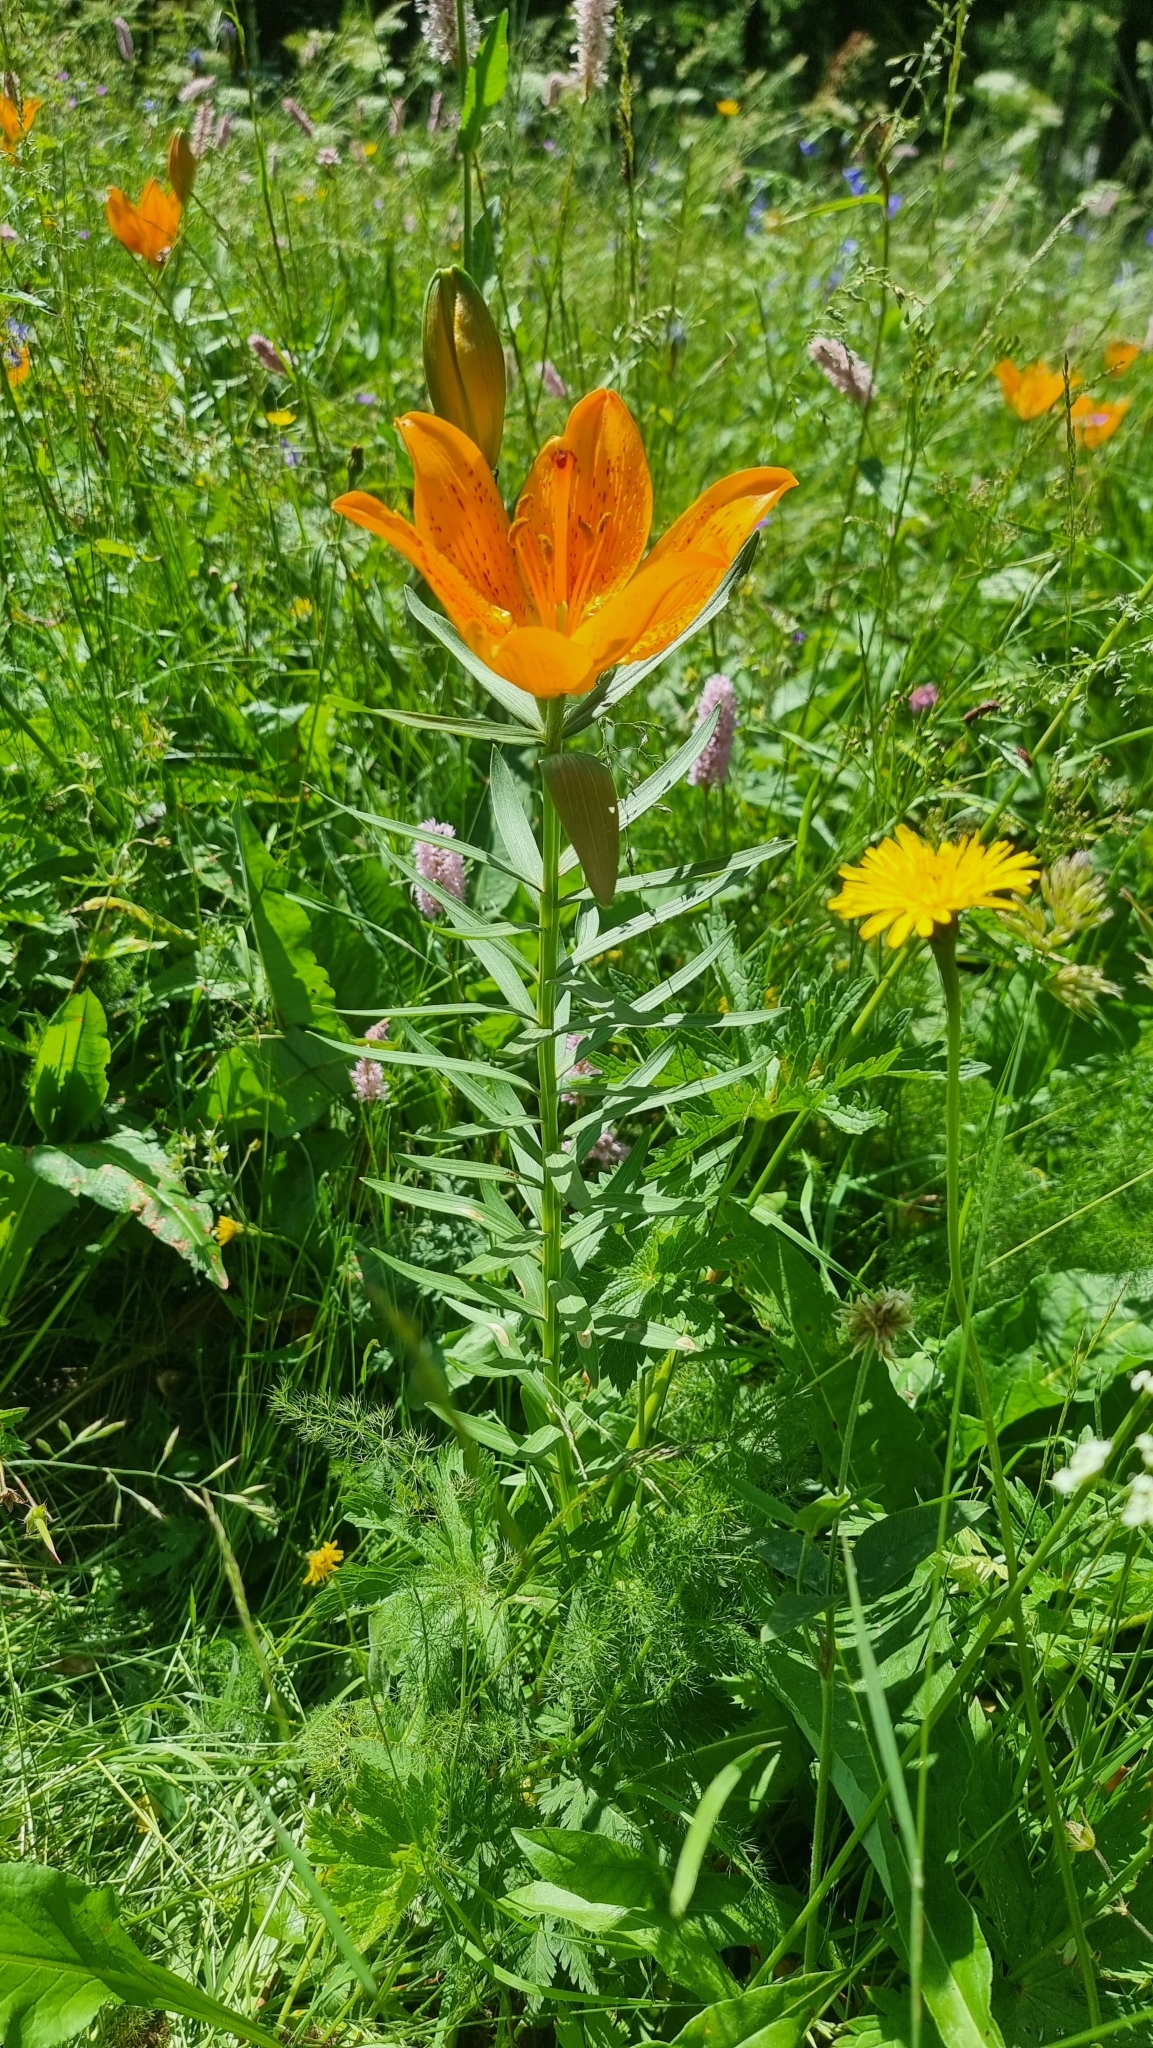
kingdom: Plantae
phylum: Tracheophyta
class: Liliopsida
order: Liliales
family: Liliaceae
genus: Lilium
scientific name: Lilium bulbiferum
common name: Orange lily
